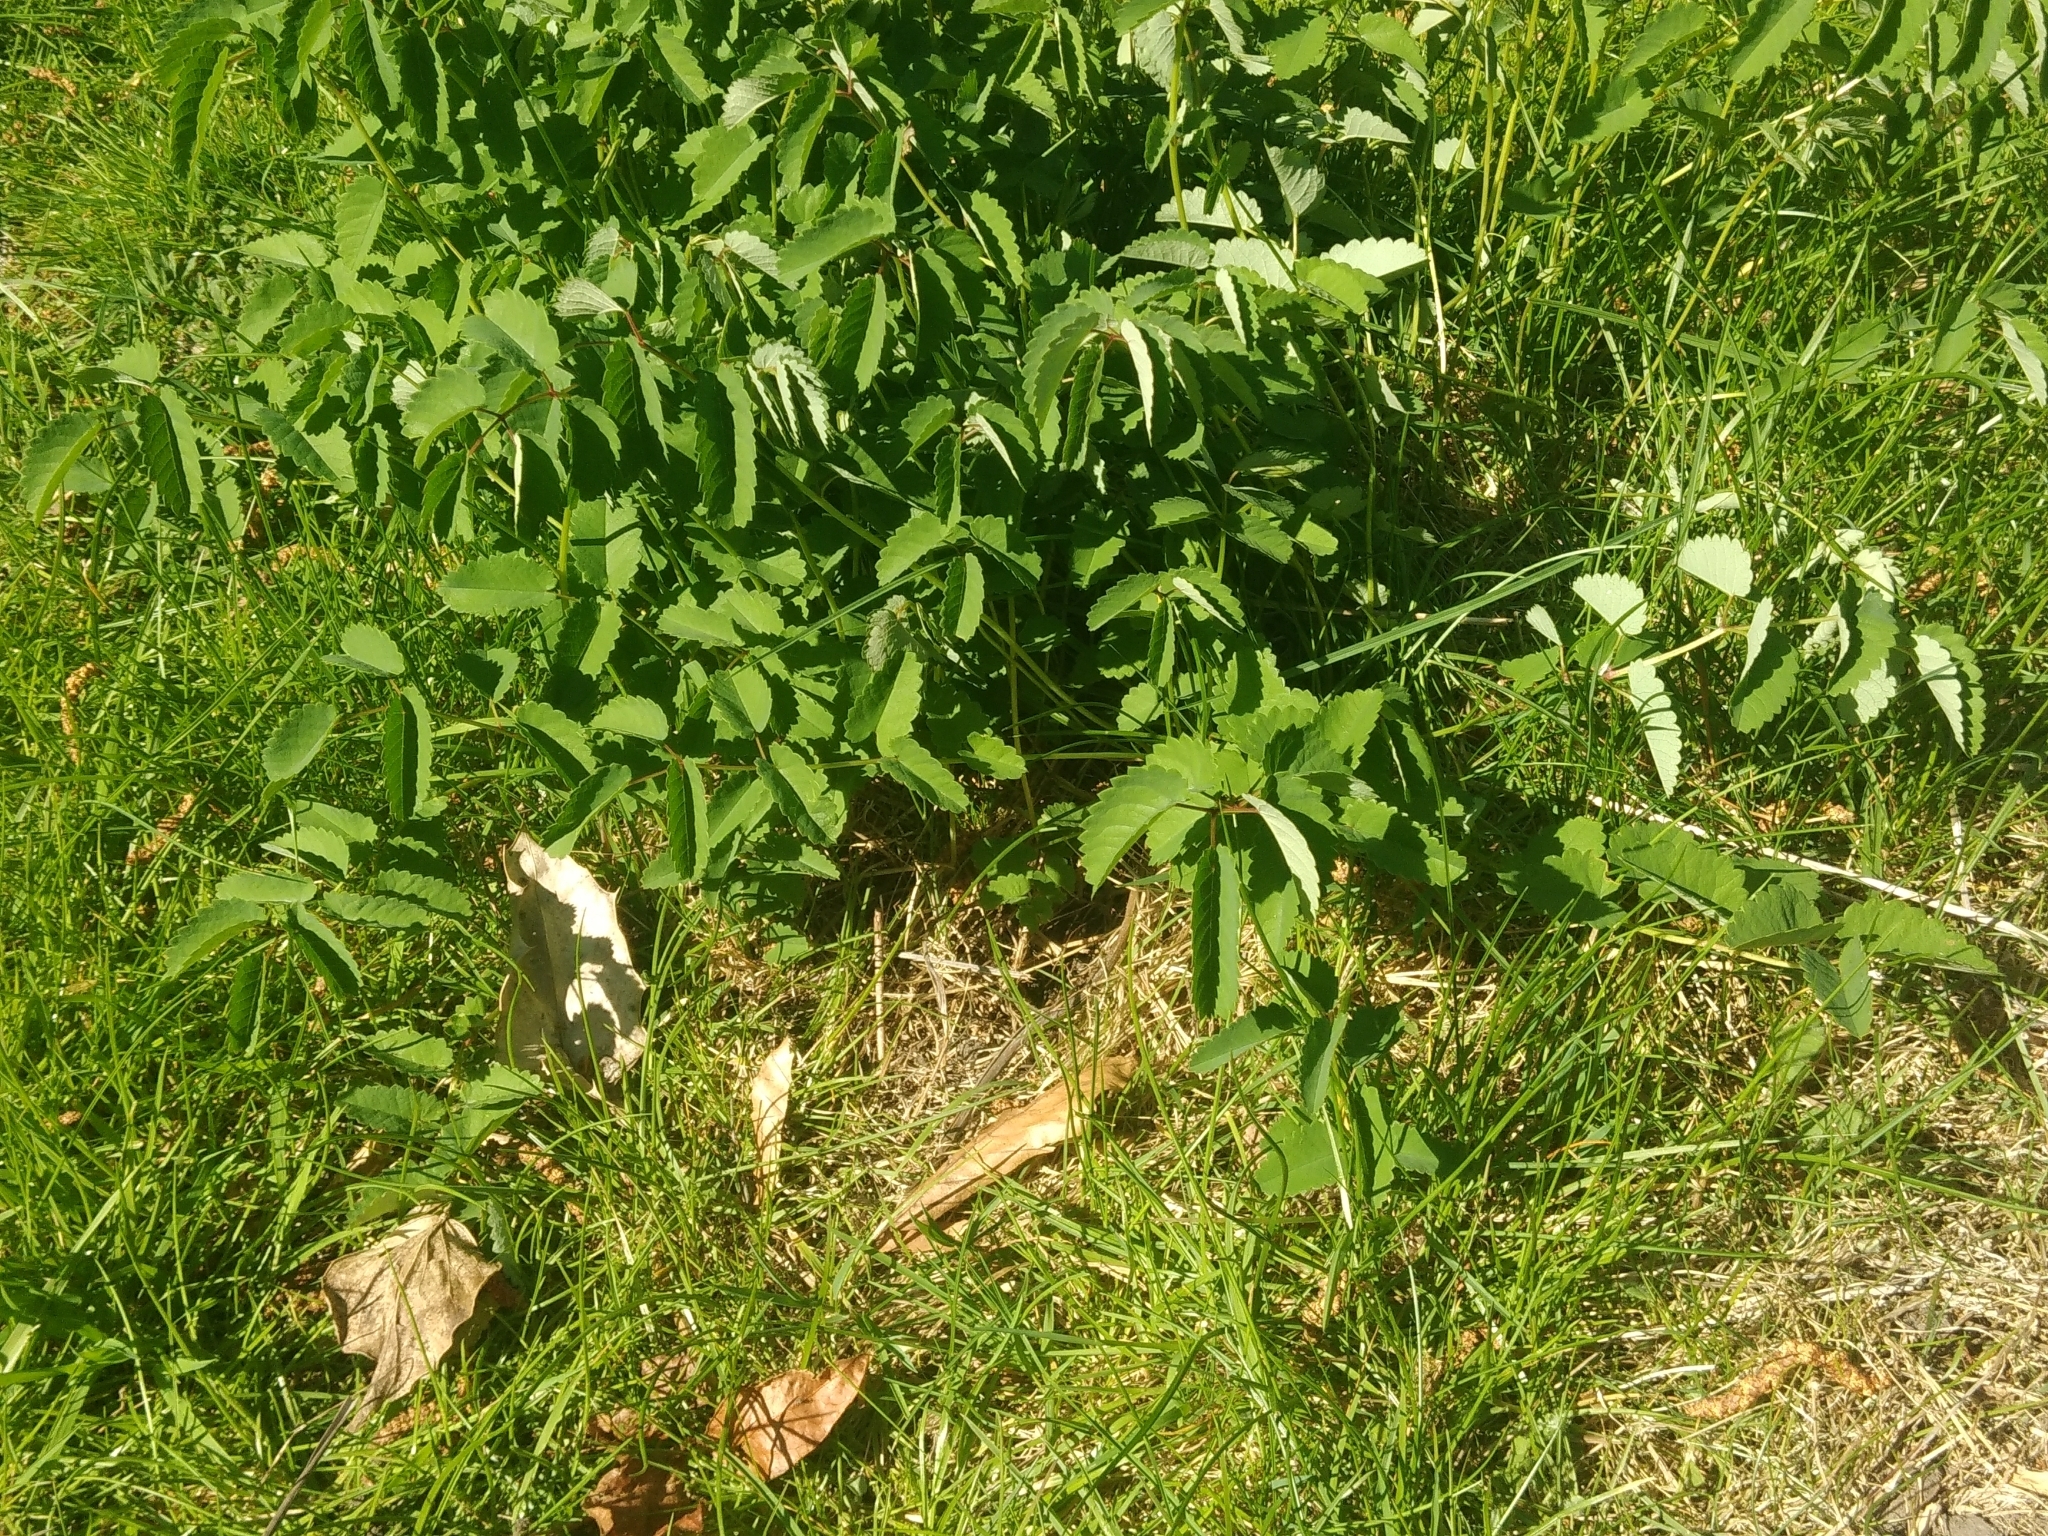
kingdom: Plantae
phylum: Tracheophyta
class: Magnoliopsida
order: Rosales
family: Rosaceae
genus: Sanguisorba
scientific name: Sanguisorba officinalis
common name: Great burnet
